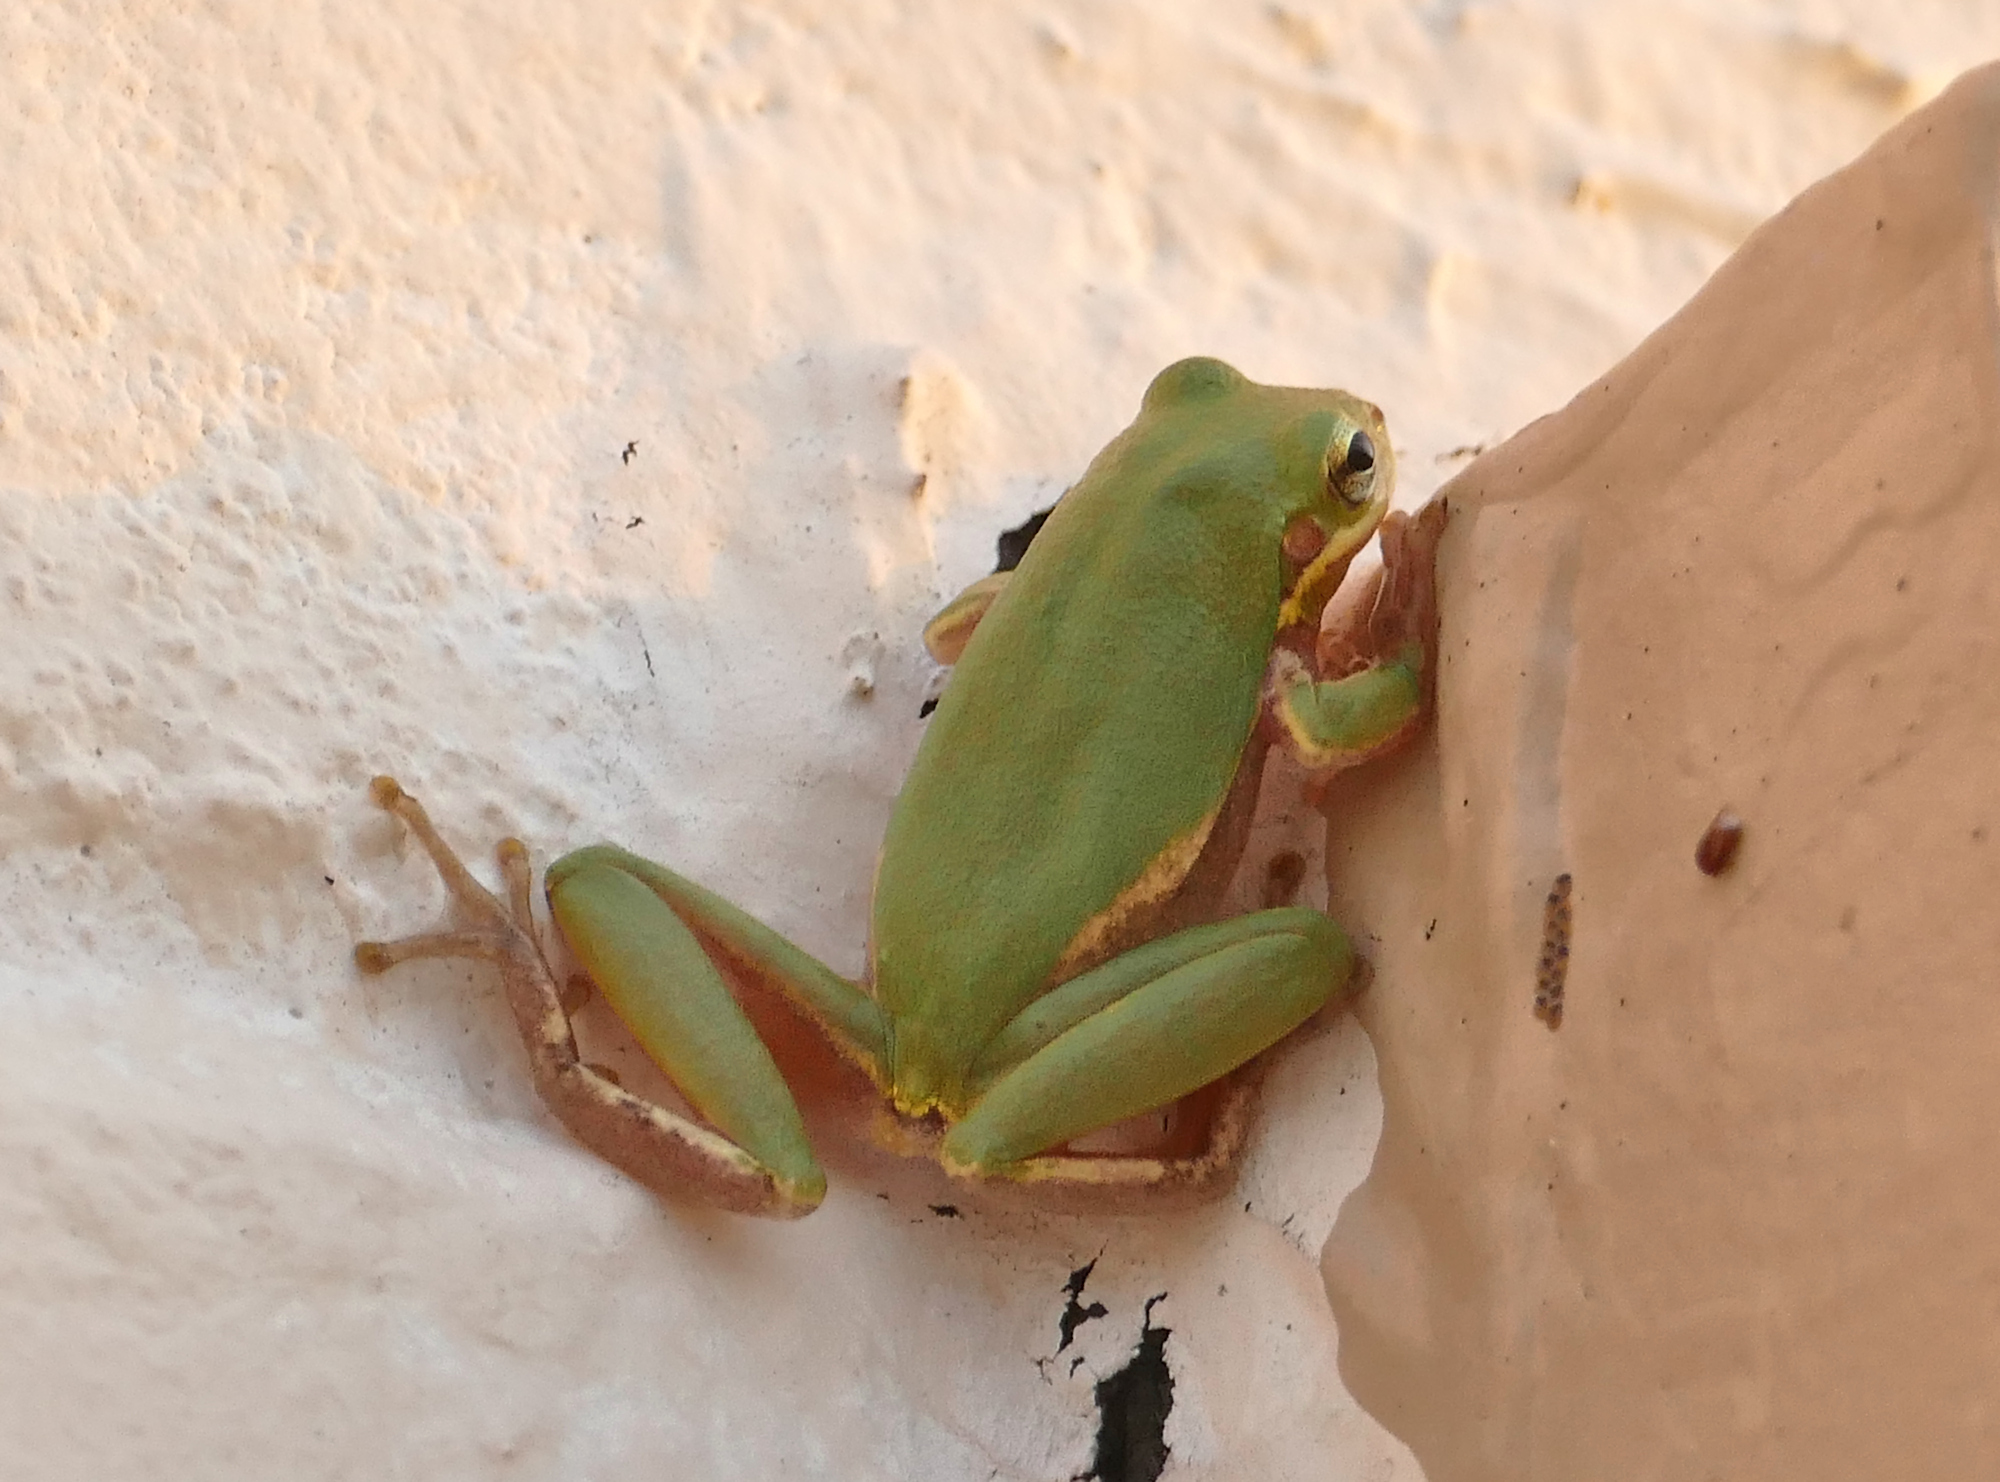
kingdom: Animalia
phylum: Chordata
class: Amphibia
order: Anura
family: Hylidae
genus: Dryophytes
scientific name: Dryophytes squirellus
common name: Squirrel treefrog
